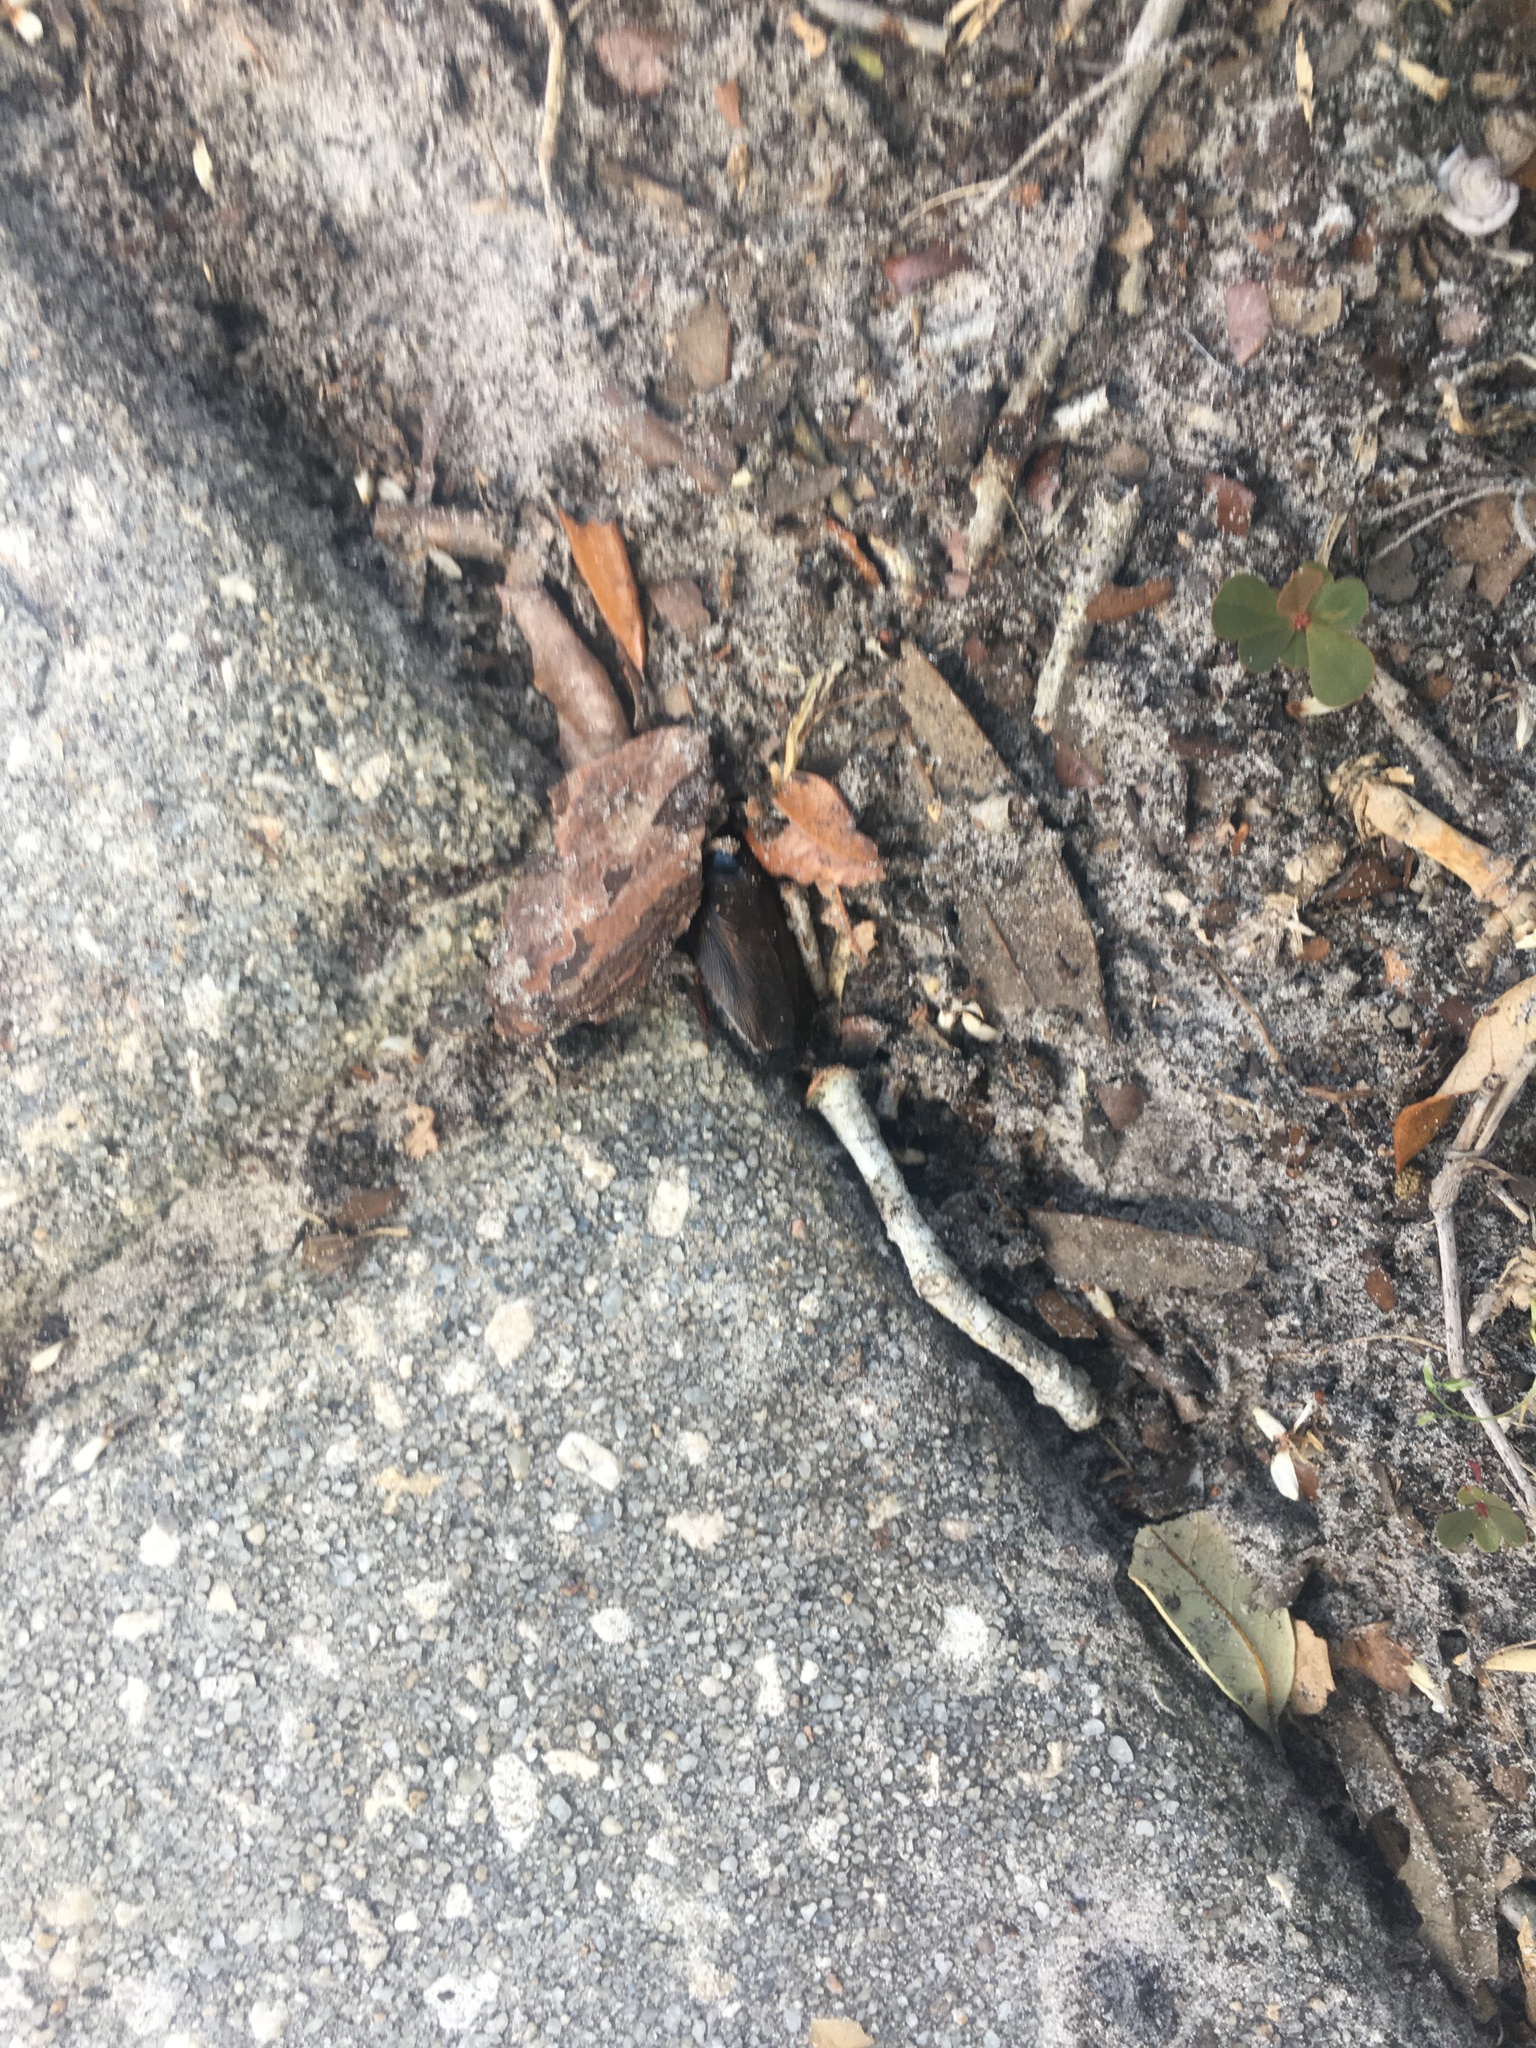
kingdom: Animalia
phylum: Arthropoda
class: Insecta
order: Blattodea
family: Blaberidae
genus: Pycnoscelus
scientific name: Pycnoscelus surinamensis
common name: Surinam cockroach
